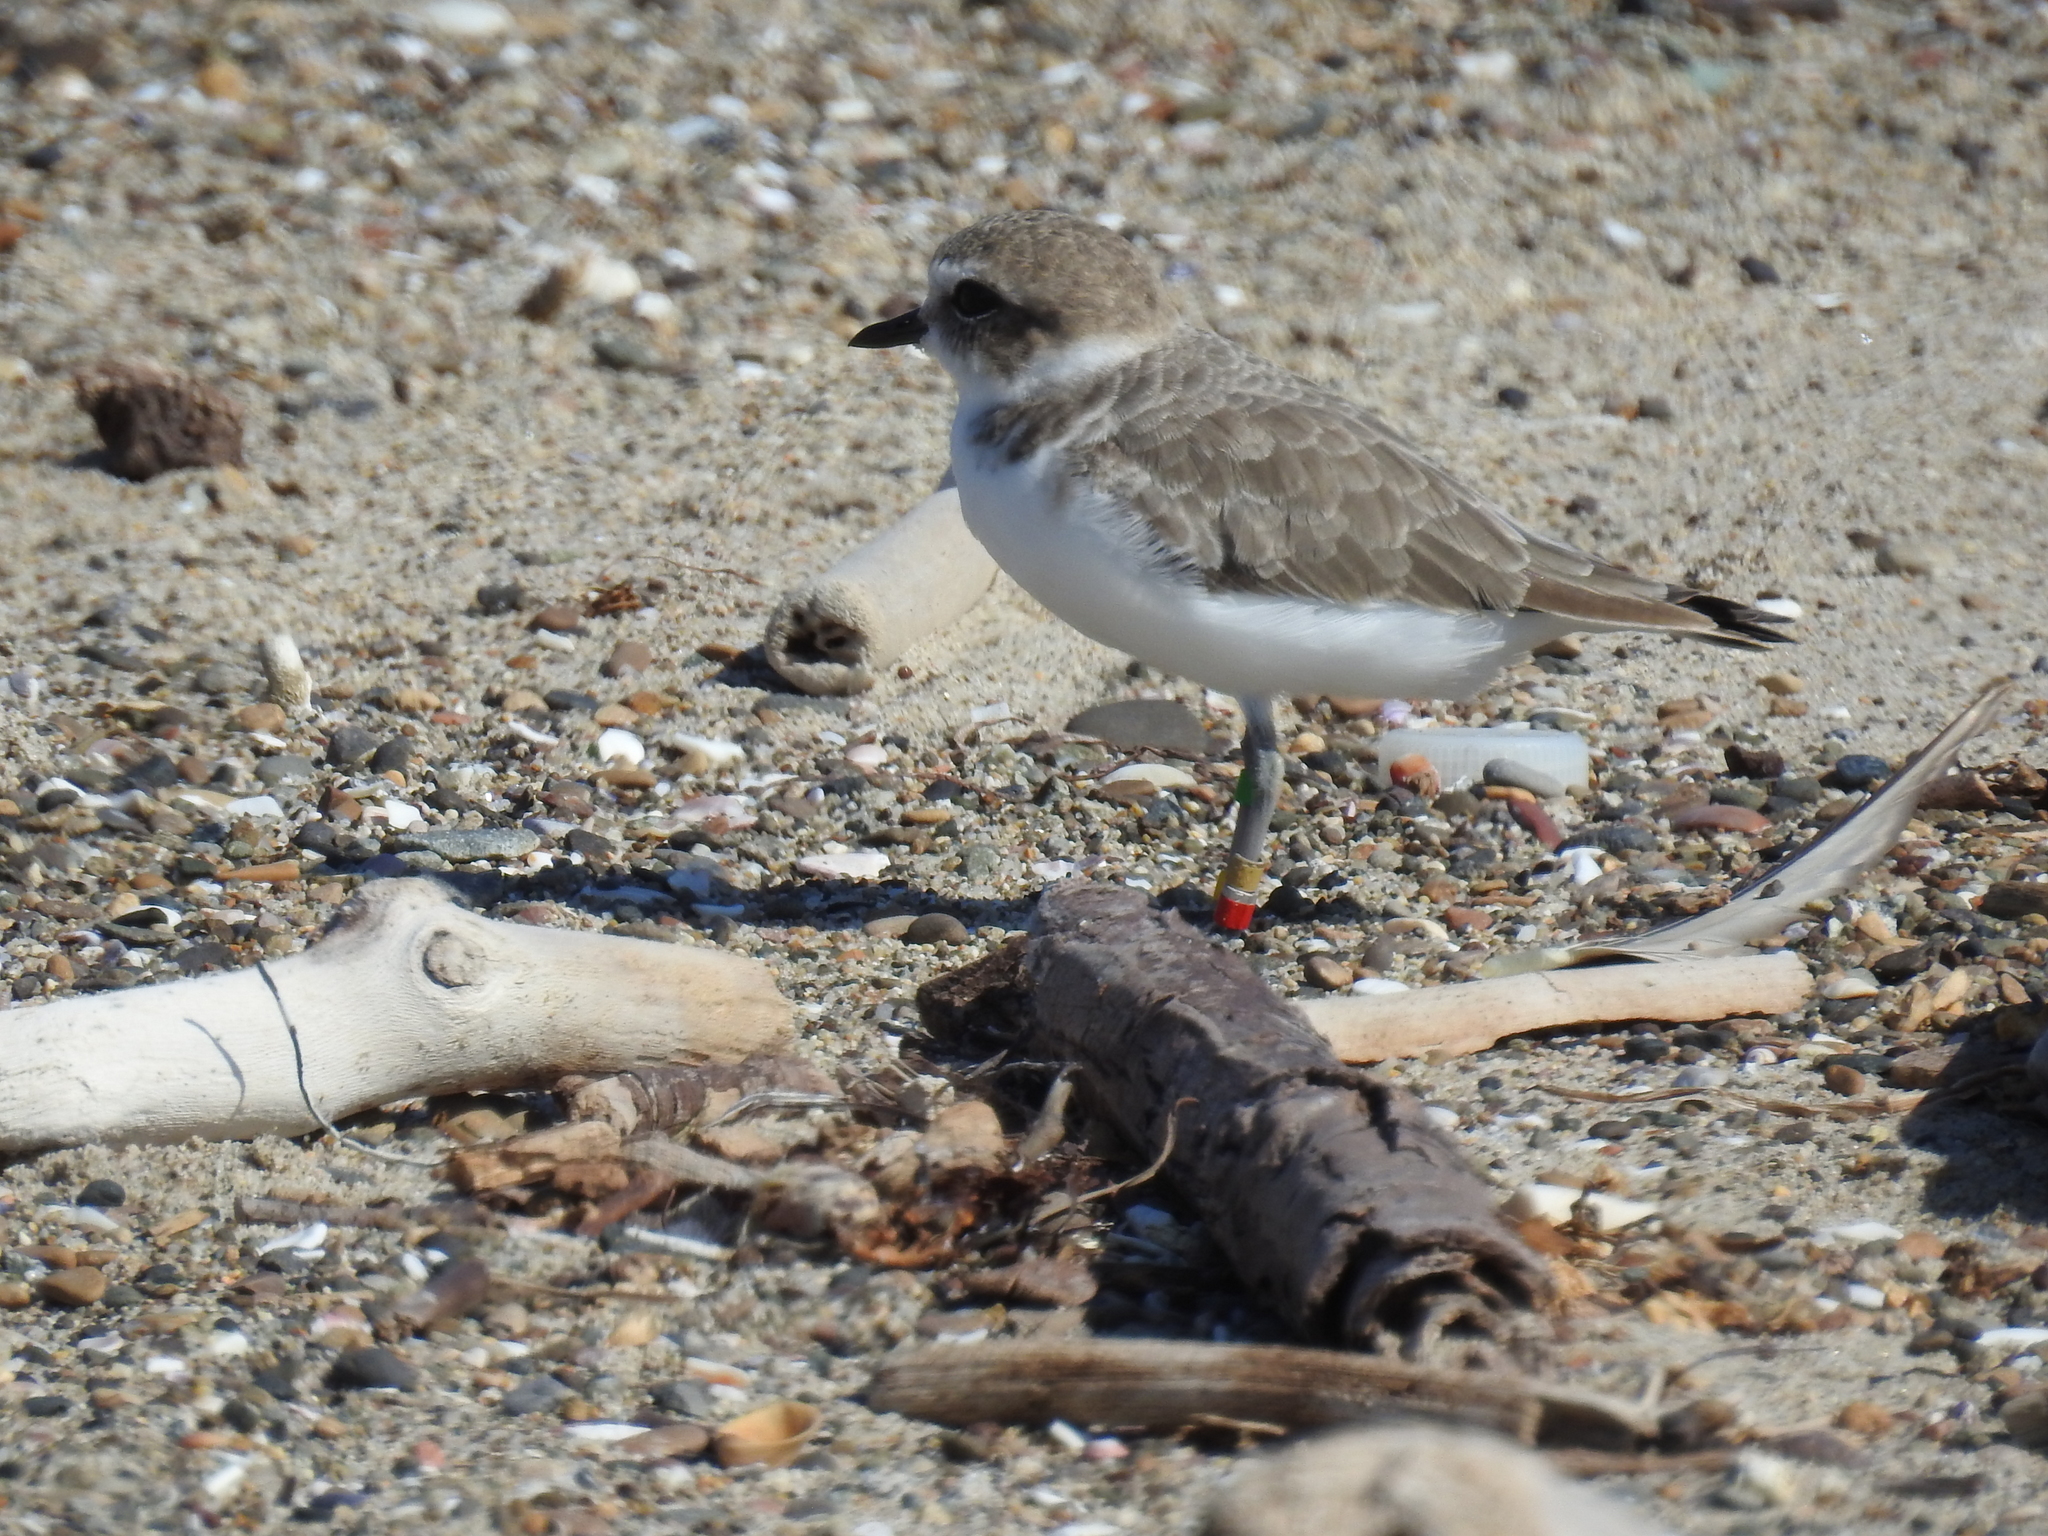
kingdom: Animalia
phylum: Chordata
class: Aves
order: Charadriiformes
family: Charadriidae
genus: Anarhynchus
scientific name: Anarhynchus
